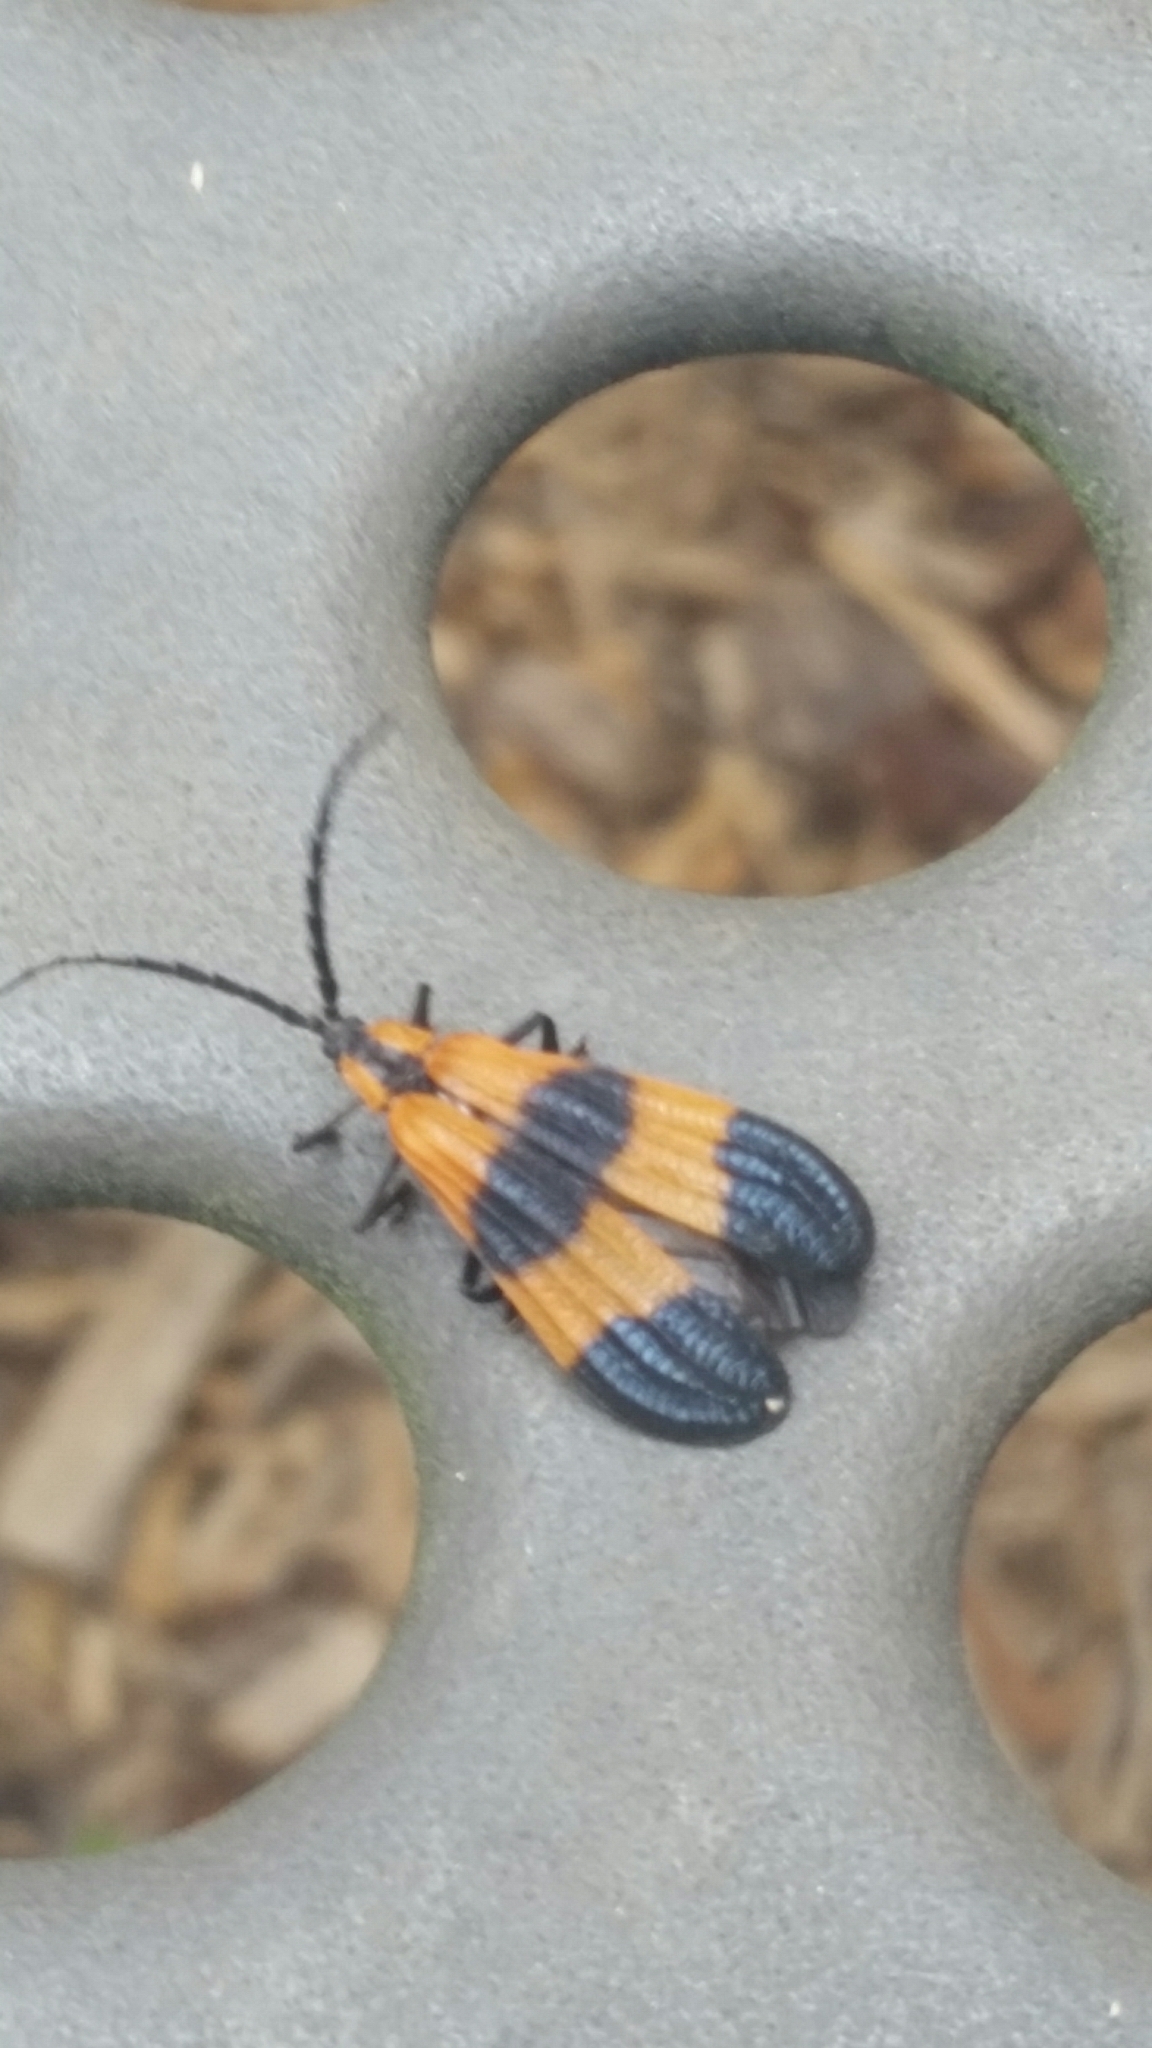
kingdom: Animalia
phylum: Arthropoda
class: Insecta
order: Coleoptera
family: Lycidae
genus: Calopteron
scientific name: Calopteron reticulatum
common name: Banded net-winged beetle
